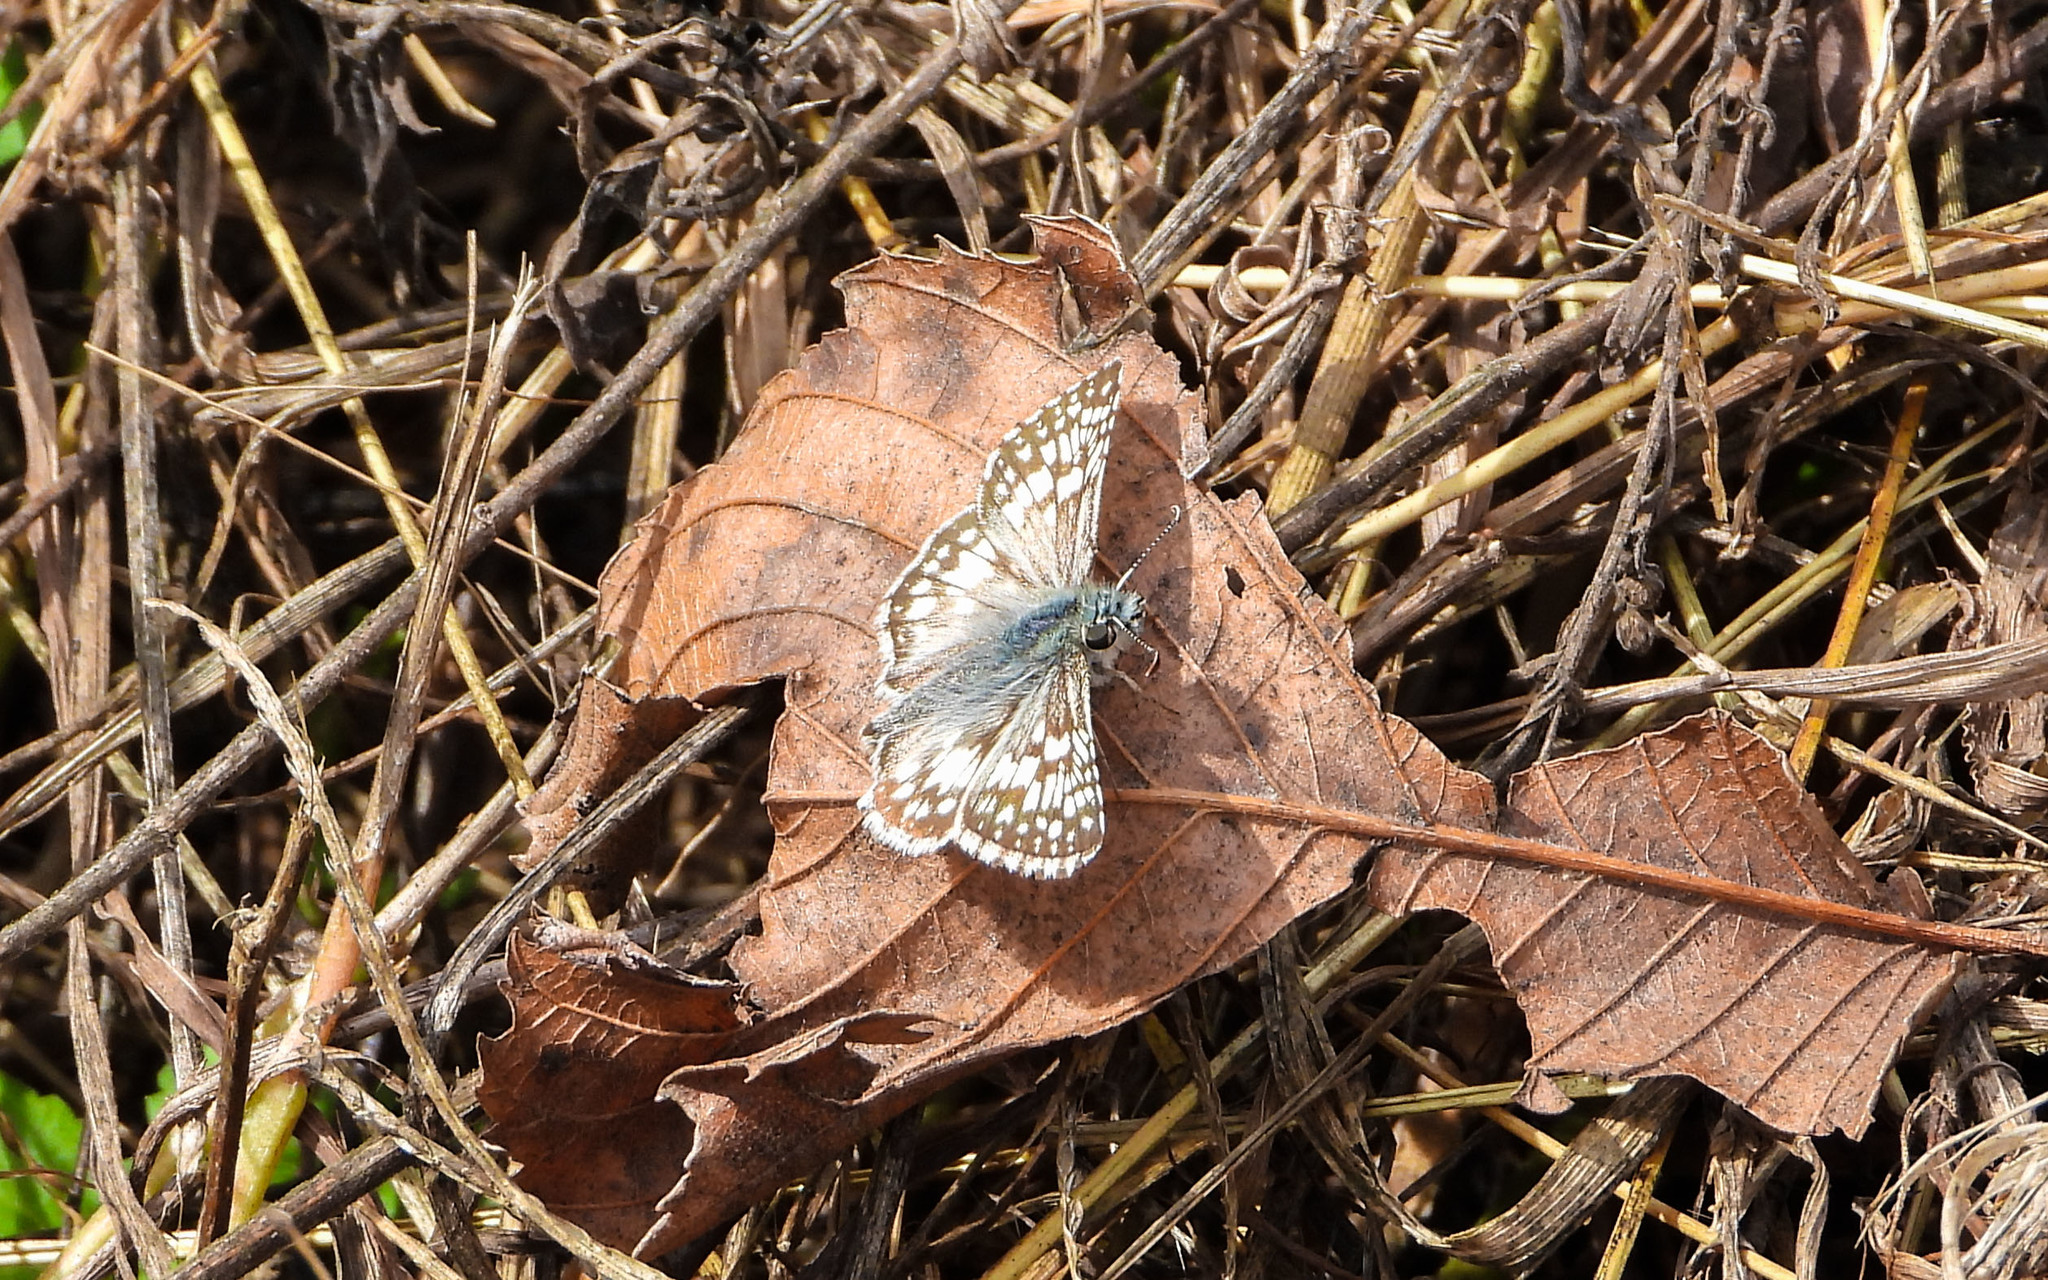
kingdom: Animalia
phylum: Arthropoda
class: Insecta
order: Lepidoptera
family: Hesperiidae
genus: Burnsius
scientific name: Burnsius communis
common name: Common checkered-skipper
